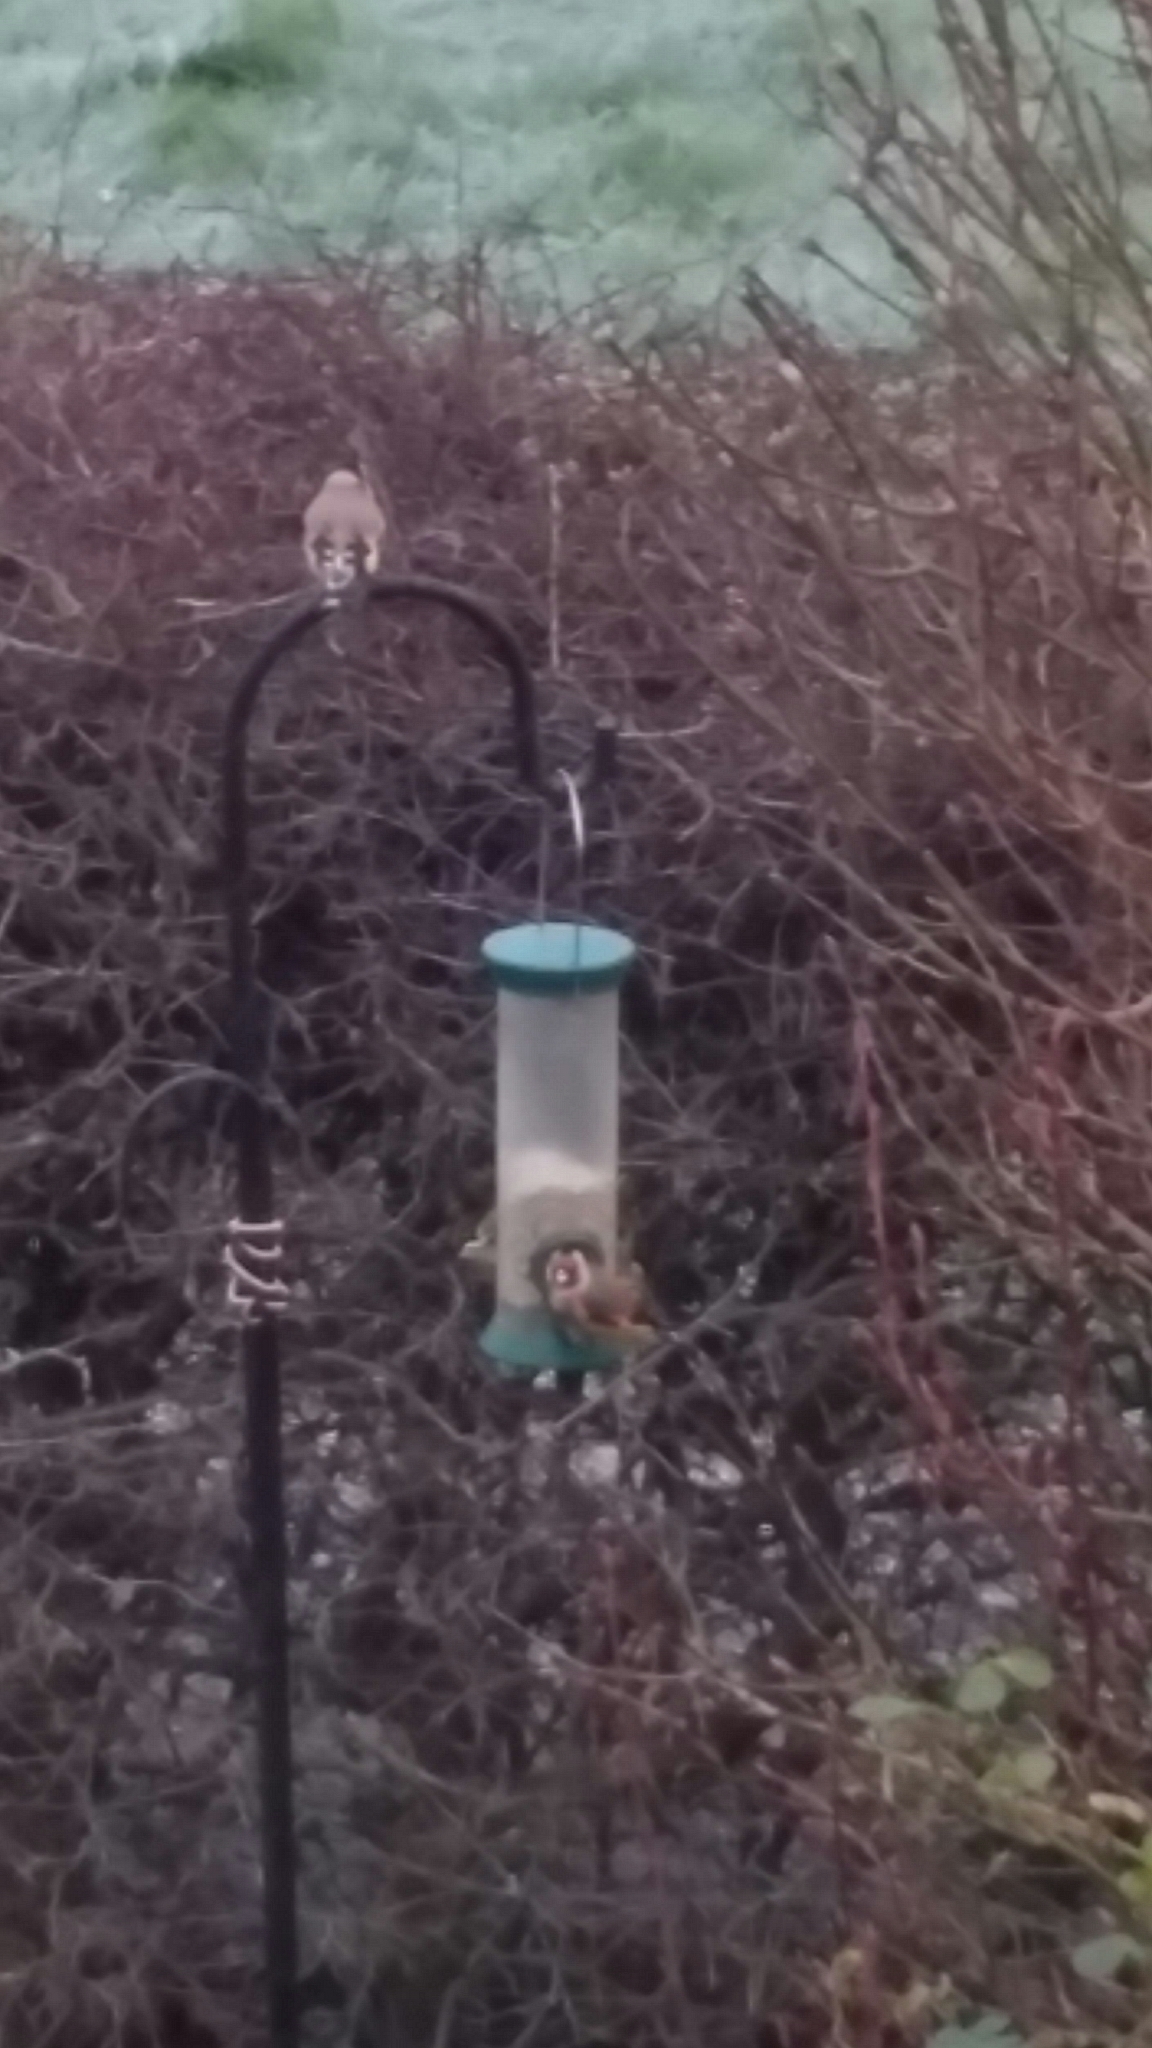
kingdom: Animalia
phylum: Chordata
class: Aves
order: Passeriformes
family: Fringillidae
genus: Carduelis
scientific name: Carduelis carduelis
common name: European goldfinch
